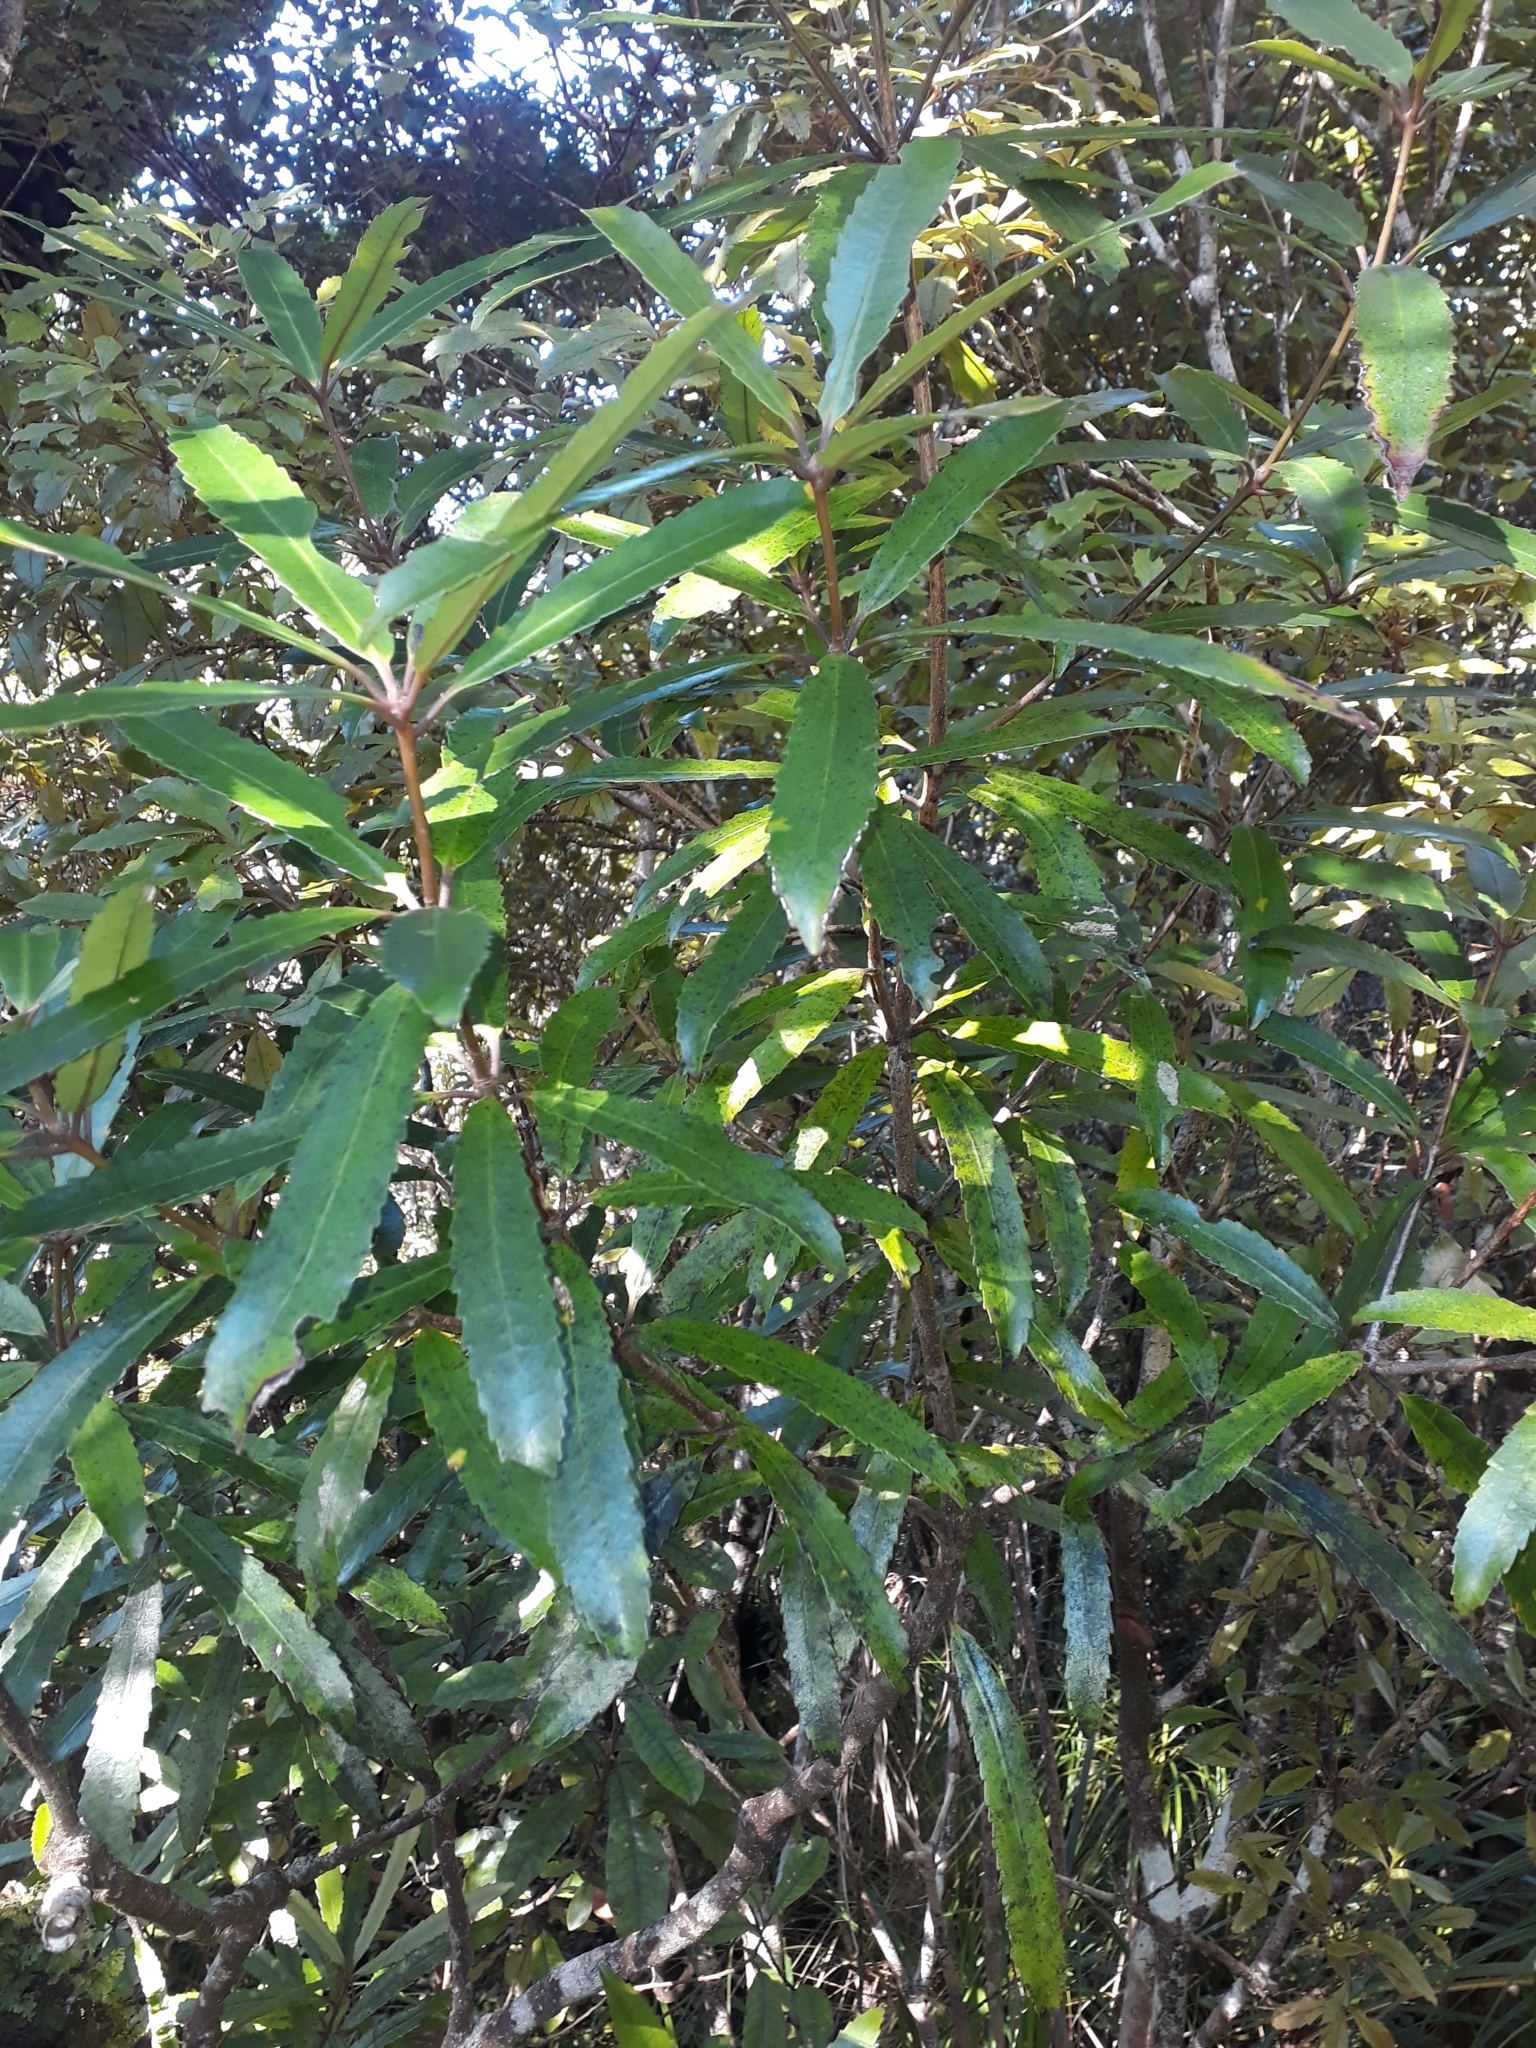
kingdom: Plantae
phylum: Tracheophyta
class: Magnoliopsida
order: Crossosomatales
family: Ixerbaceae
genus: Ixerba
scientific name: Ixerba brexioides
